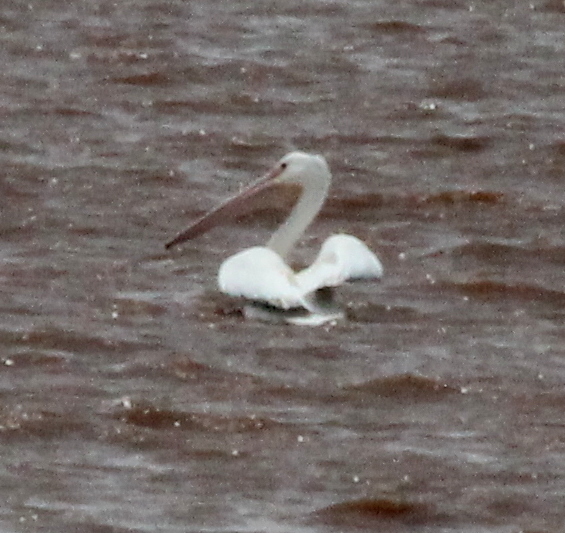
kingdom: Animalia
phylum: Chordata
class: Aves
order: Pelecaniformes
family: Pelecanidae
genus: Pelecanus
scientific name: Pelecanus erythrorhynchos
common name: American white pelican
